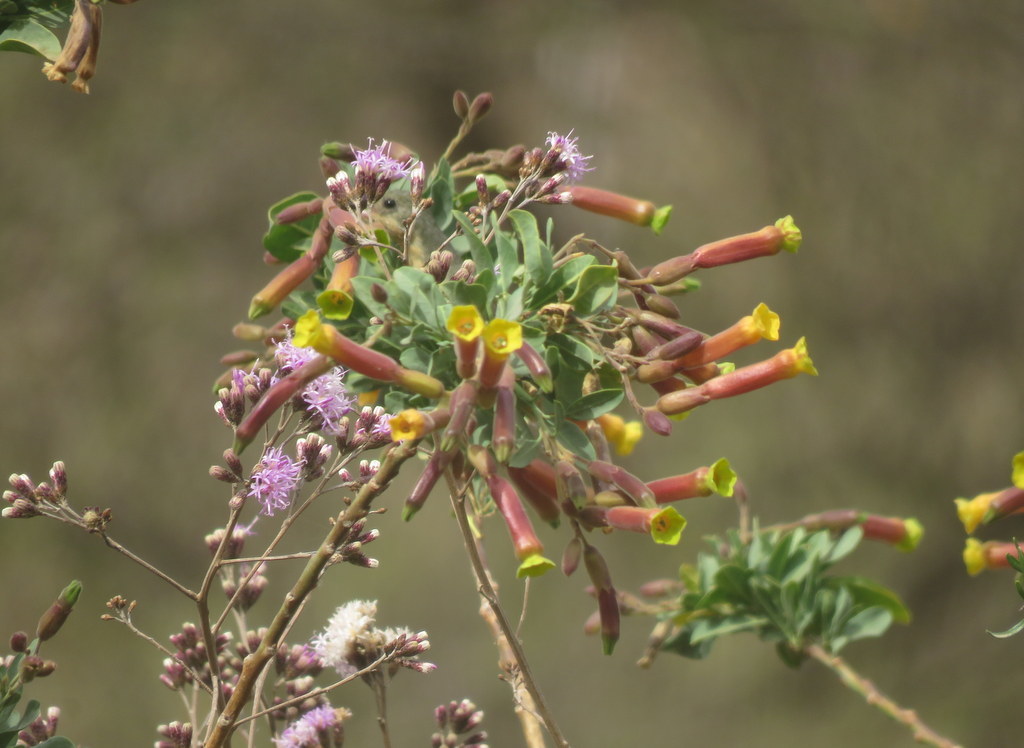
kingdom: Plantae
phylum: Tracheophyta
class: Magnoliopsida
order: Solanales
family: Solanaceae
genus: Nicotiana
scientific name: Nicotiana glauca
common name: Tree tobacco
